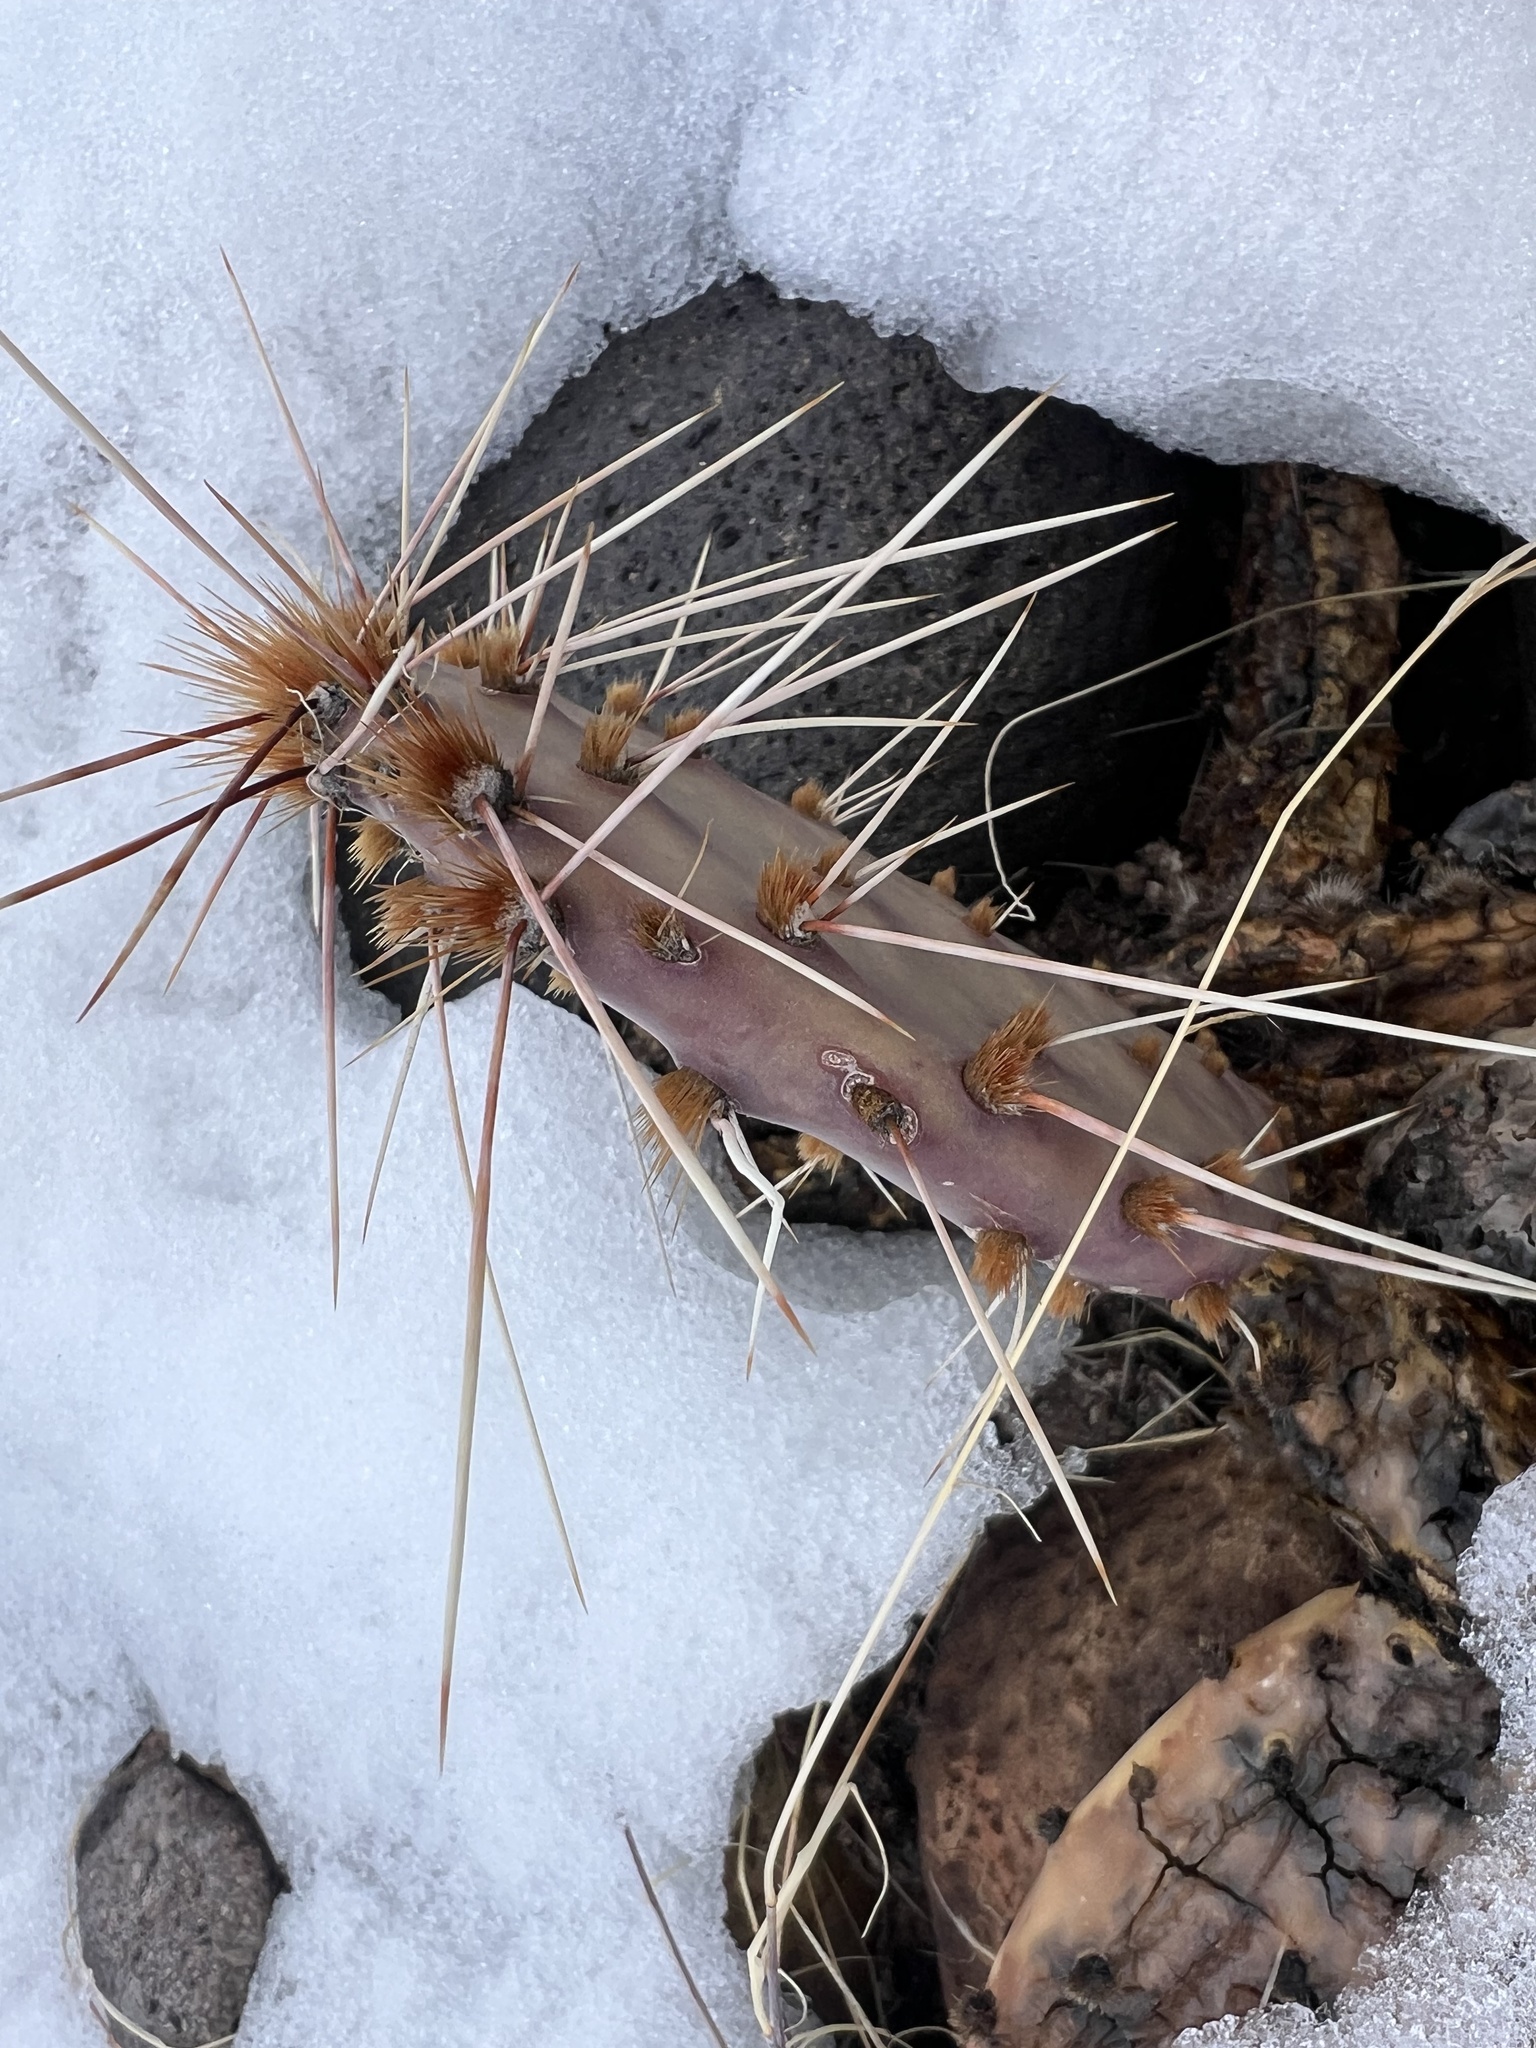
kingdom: Plantae
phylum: Tracheophyta
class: Magnoliopsida
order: Caryophyllales
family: Cactaceae
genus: Opuntia
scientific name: Opuntia phaeacantha
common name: New mexico prickly-pear
